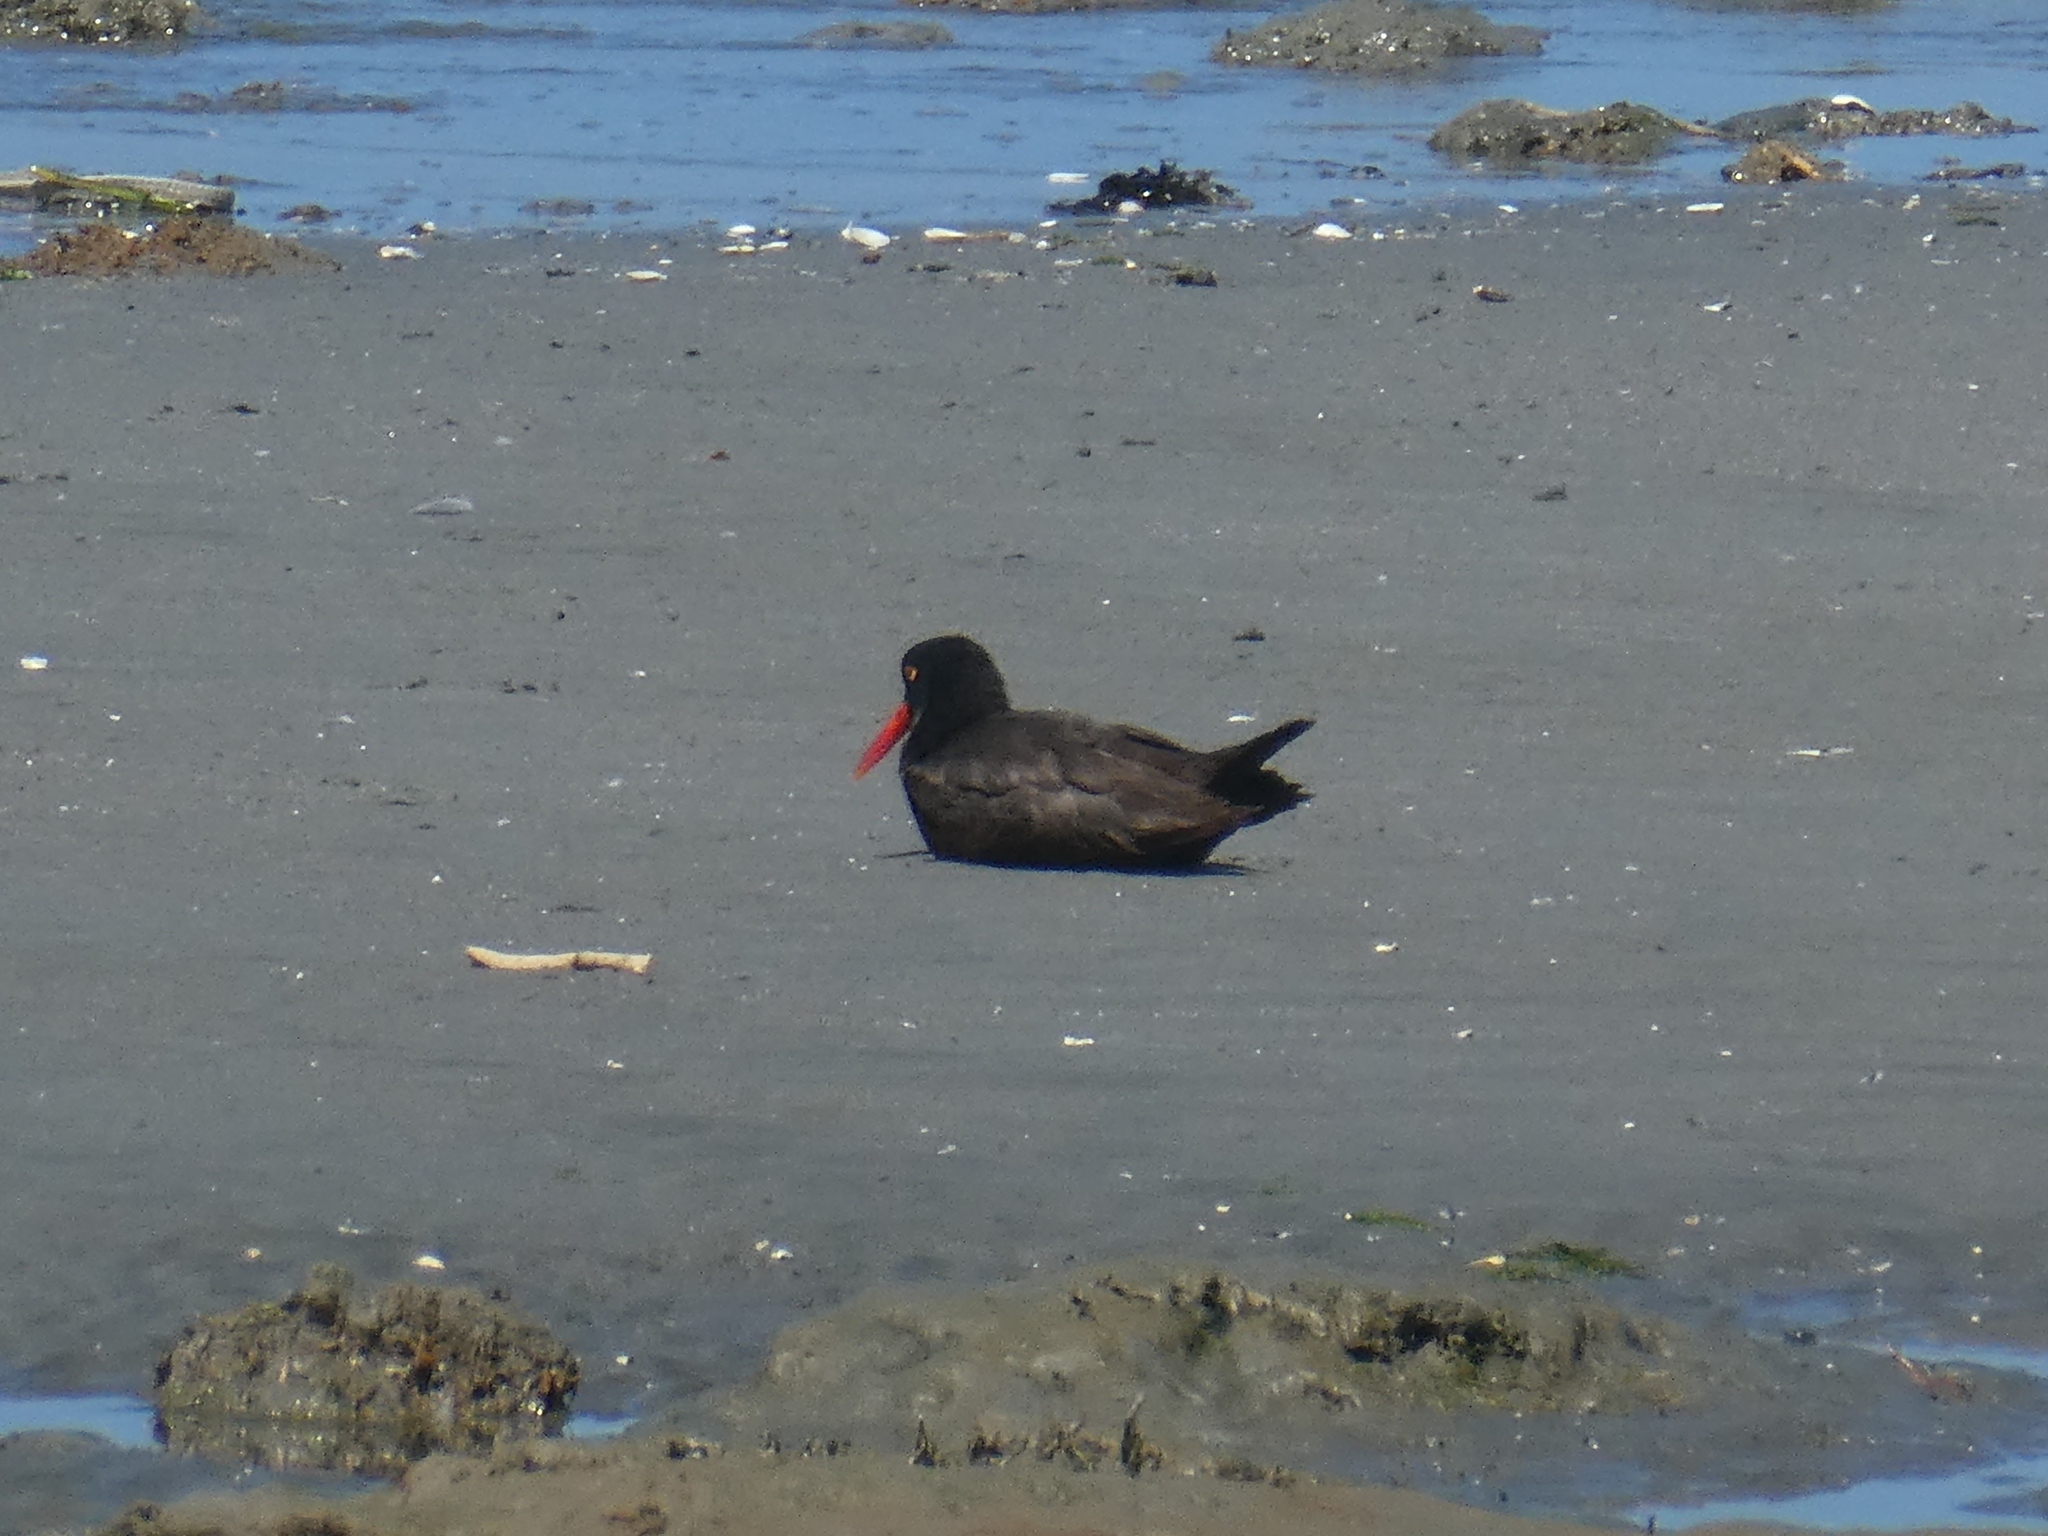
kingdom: Animalia
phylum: Chordata
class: Aves
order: Charadriiformes
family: Haematopodidae
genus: Haematopus
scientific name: Haematopus bachmani
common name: Black oystercatcher
